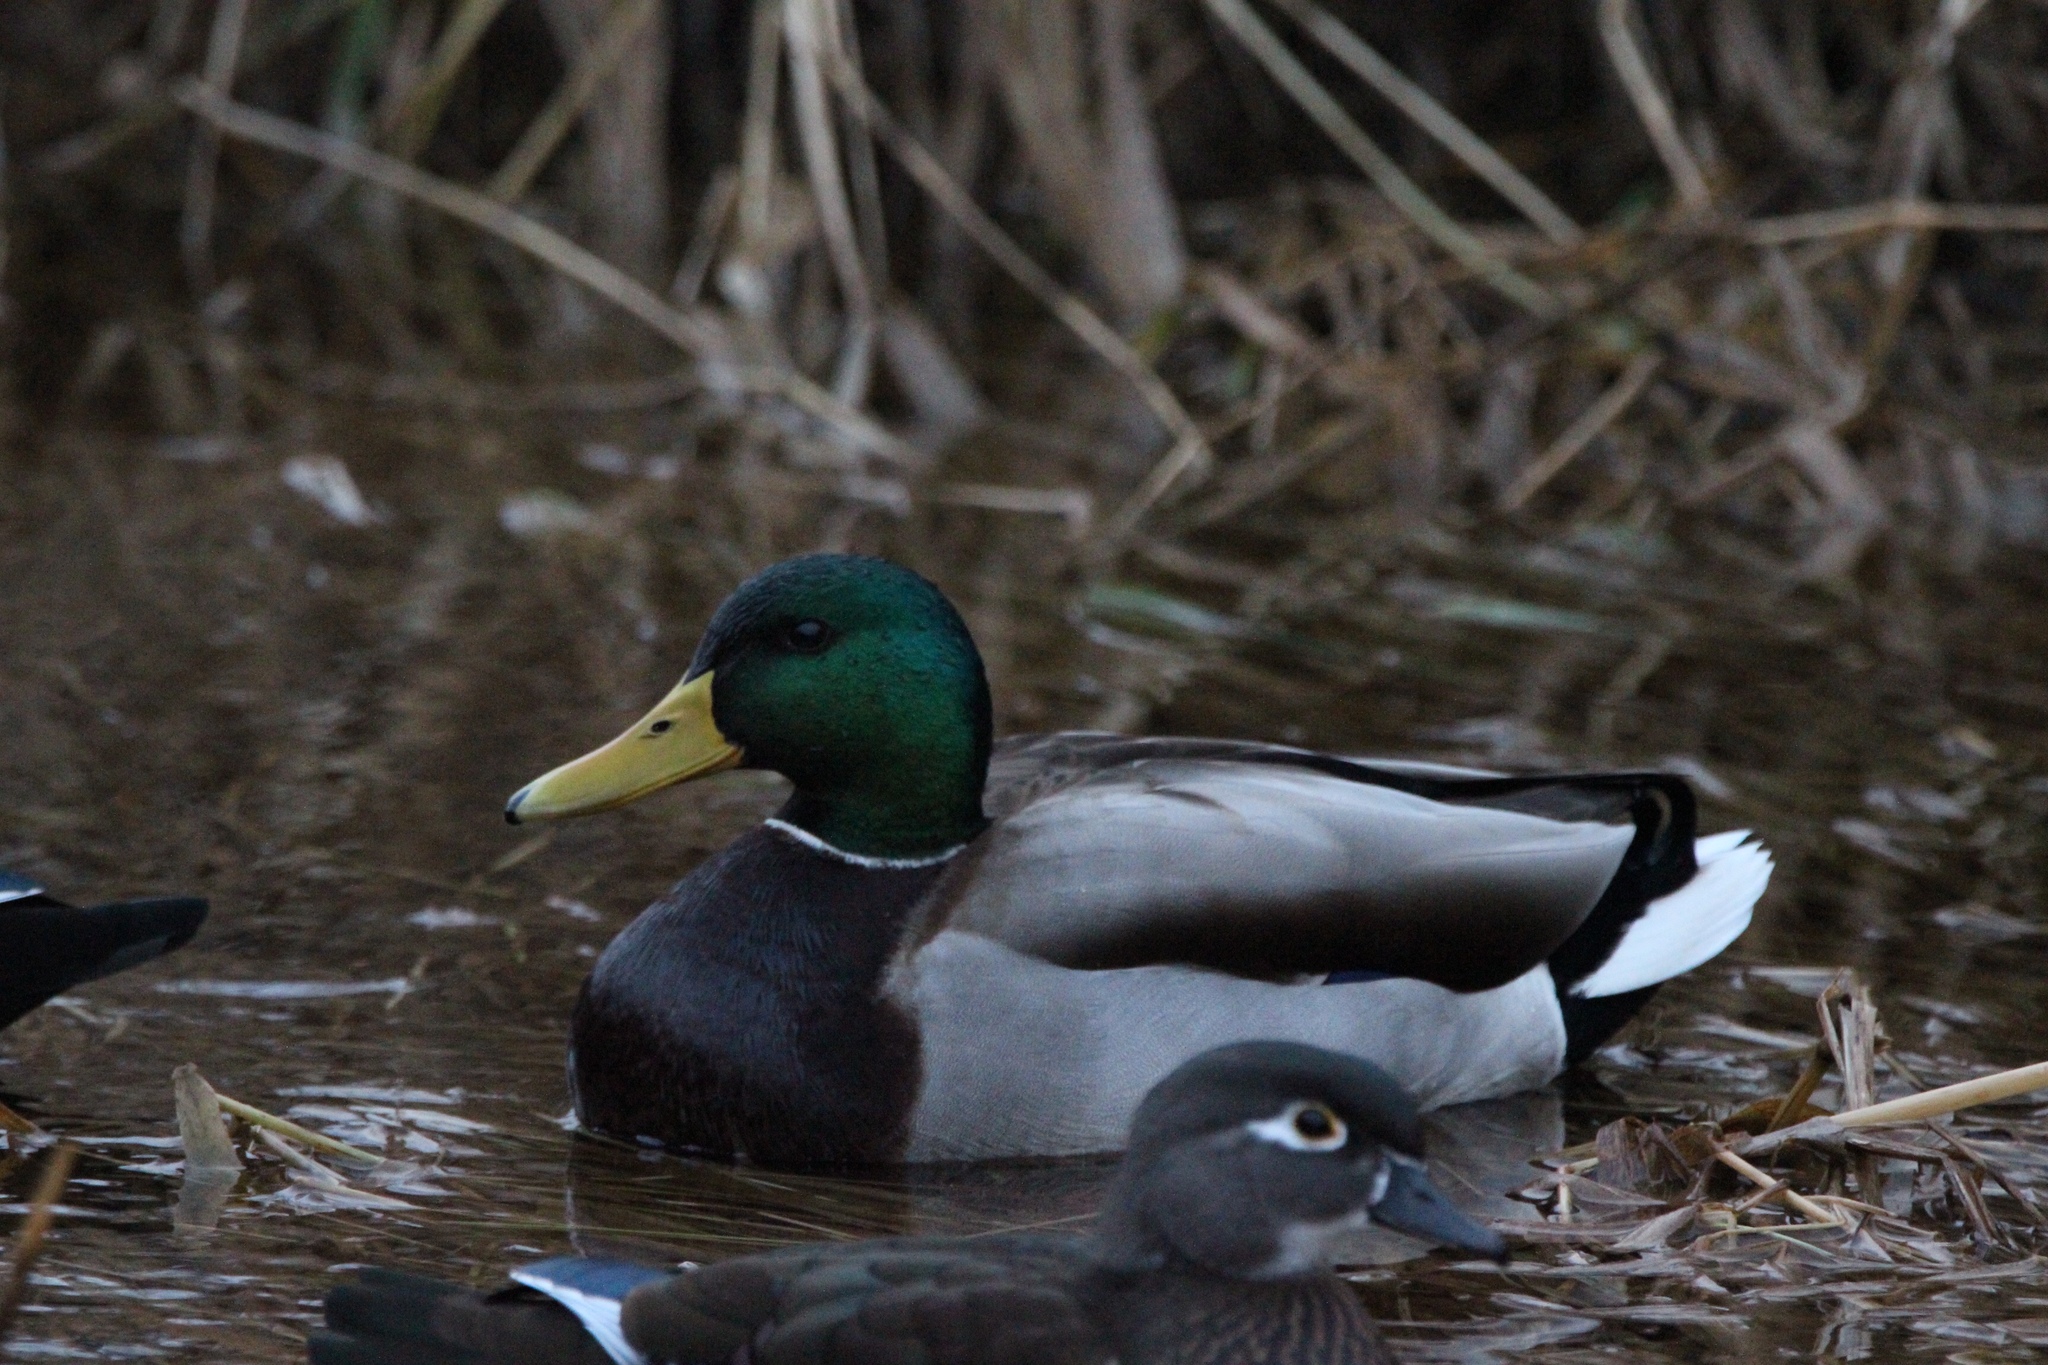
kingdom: Animalia
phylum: Chordata
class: Aves
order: Anseriformes
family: Anatidae
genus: Anas
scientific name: Anas platyrhynchos
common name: Mallard
